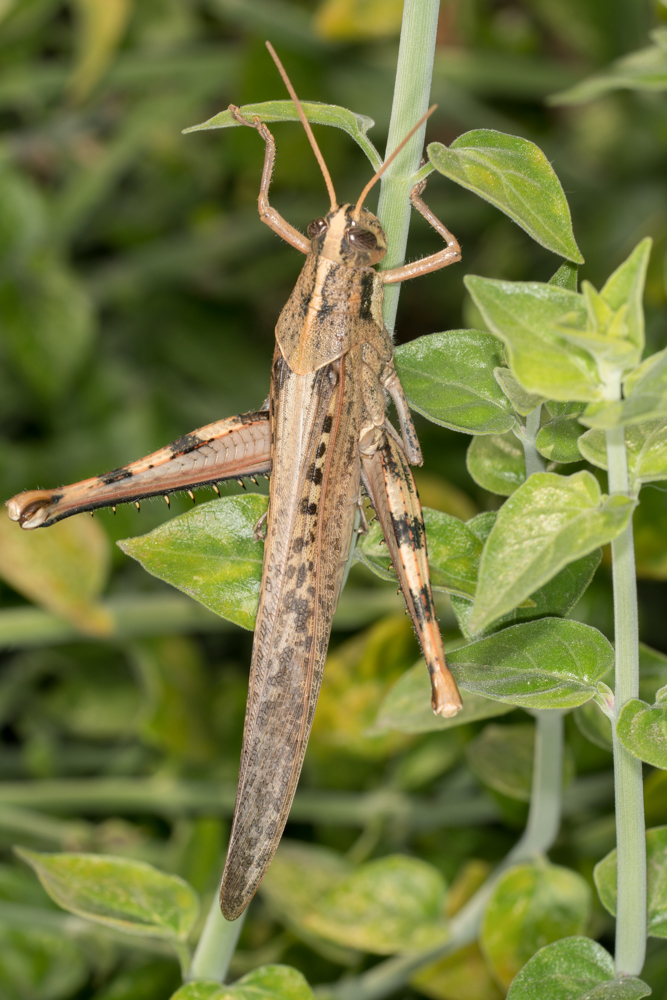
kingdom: Animalia
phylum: Arthropoda
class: Insecta
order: Orthoptera
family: Acrididae
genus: Schistocerca
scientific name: Schistocerca nitens
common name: Vagrant grasshopper
